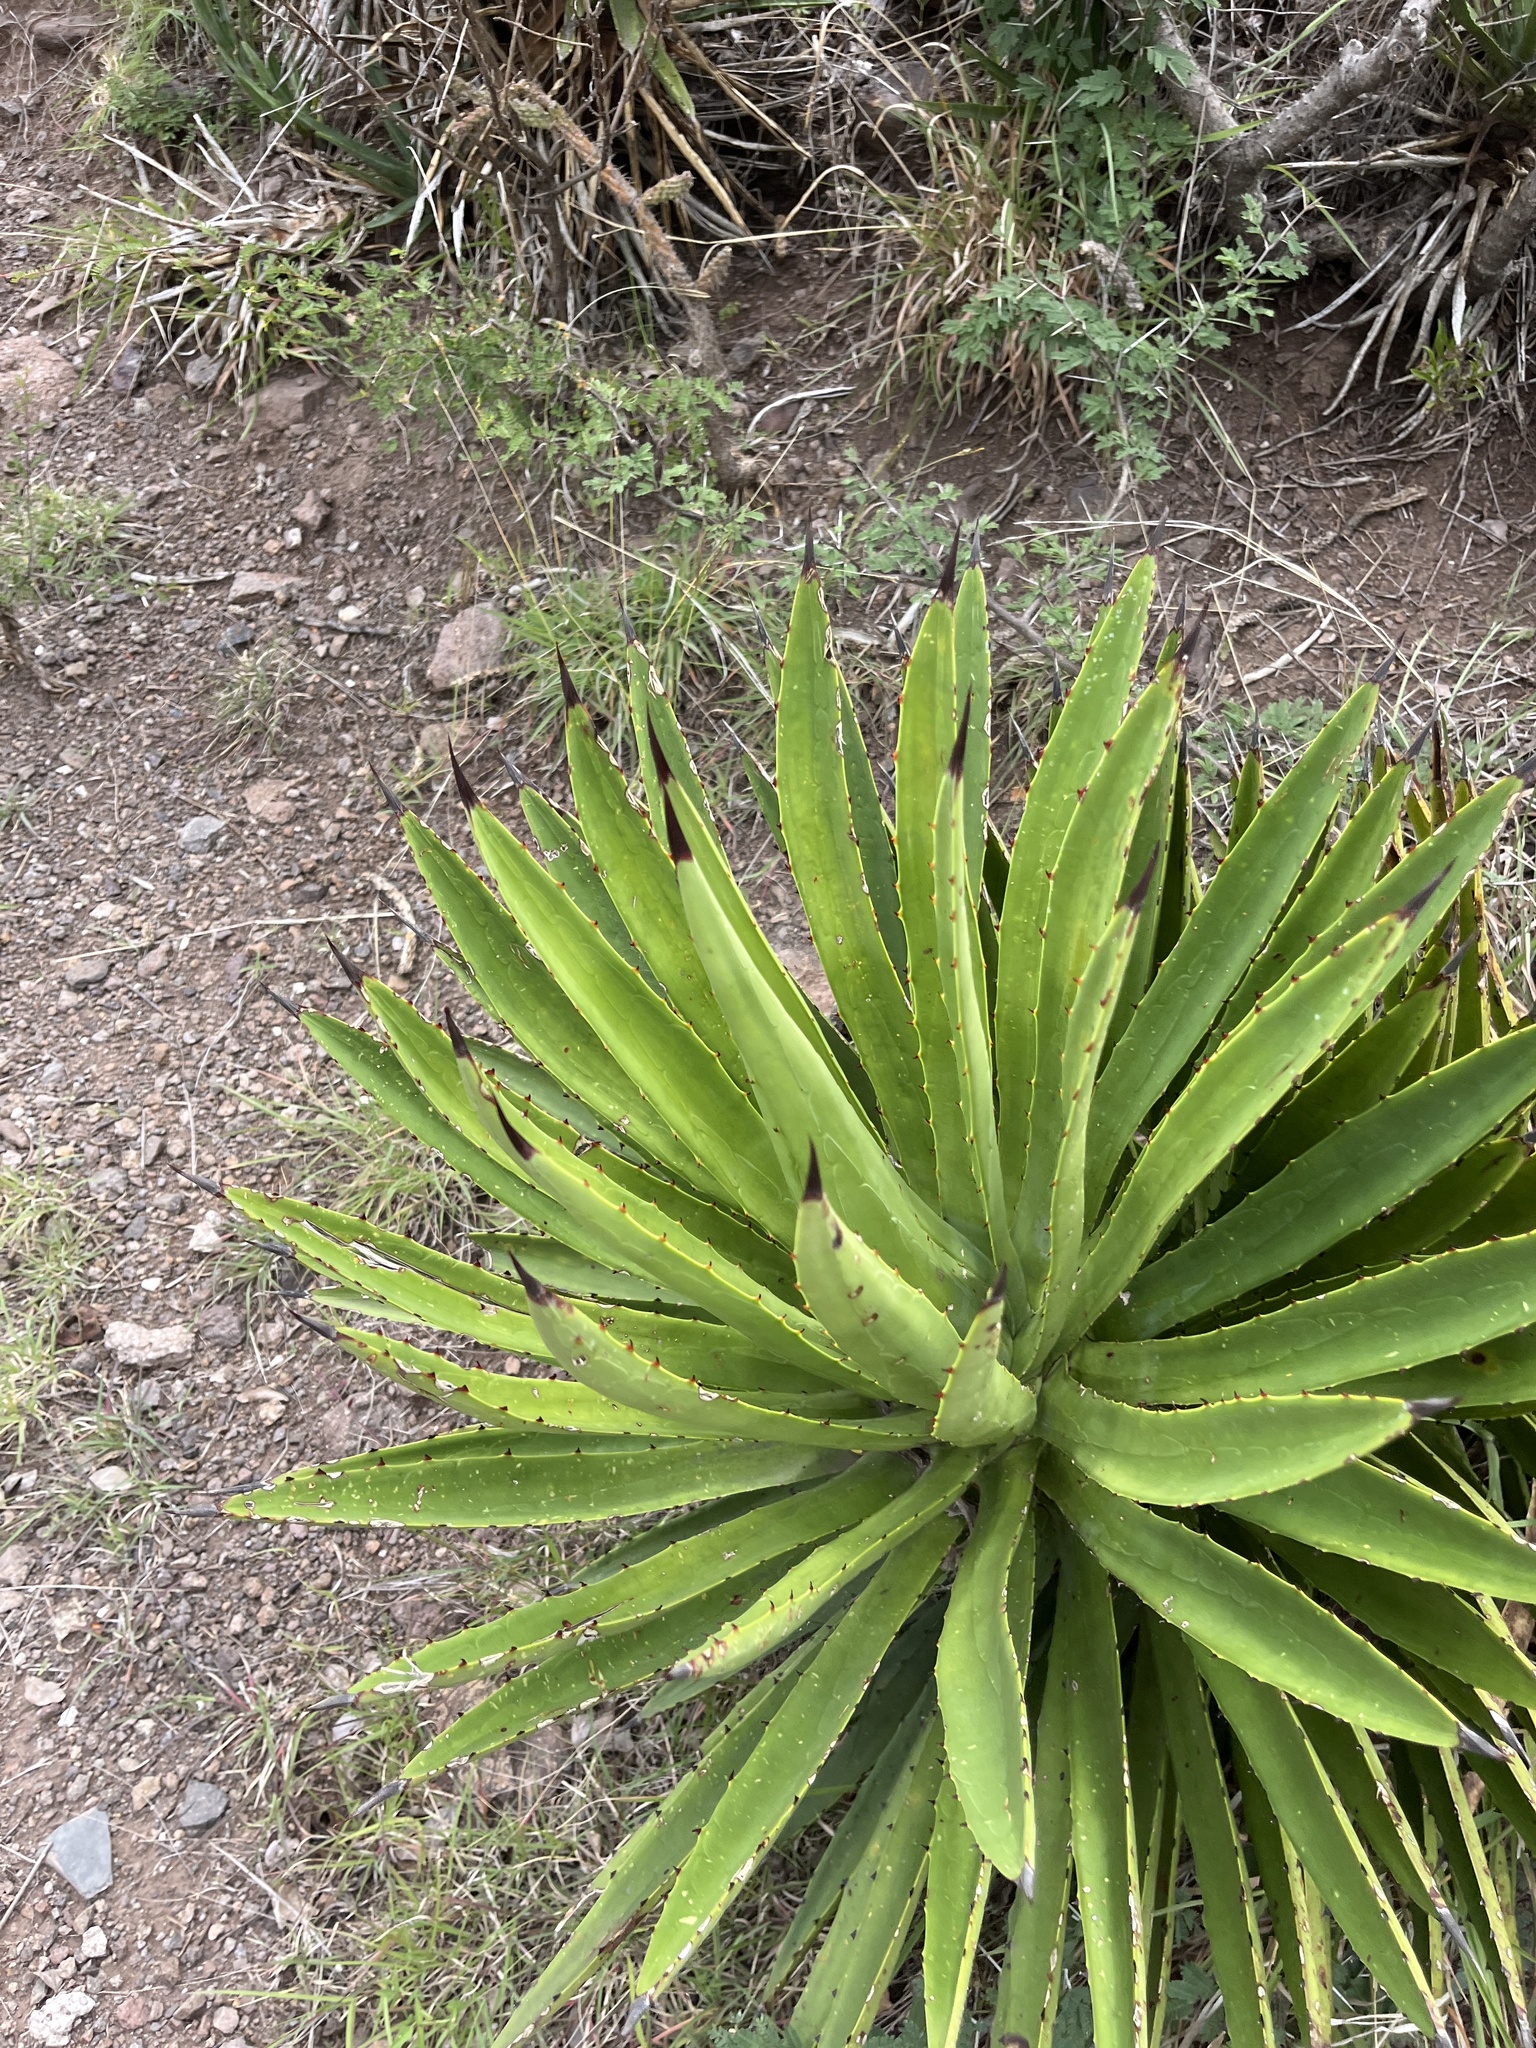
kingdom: Plantae
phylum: Tracheophyta
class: Liliopsida
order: Asparagales
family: Asparagaceae
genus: Agave
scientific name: Agave karwinskii
